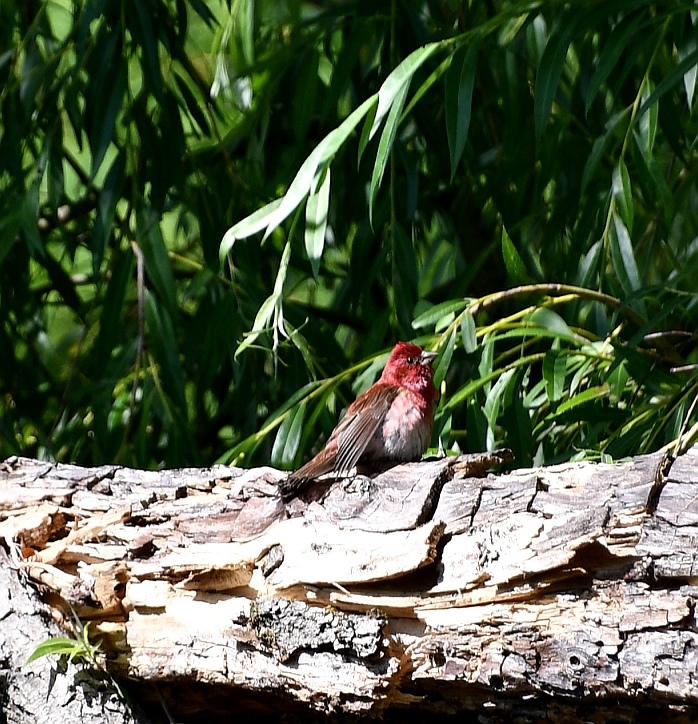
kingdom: Animalia
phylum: Chordata
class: Aves
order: Passeriformes
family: Fringillidae
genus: Haemorhous
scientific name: Haemorhous purpureus
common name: Purple finch
